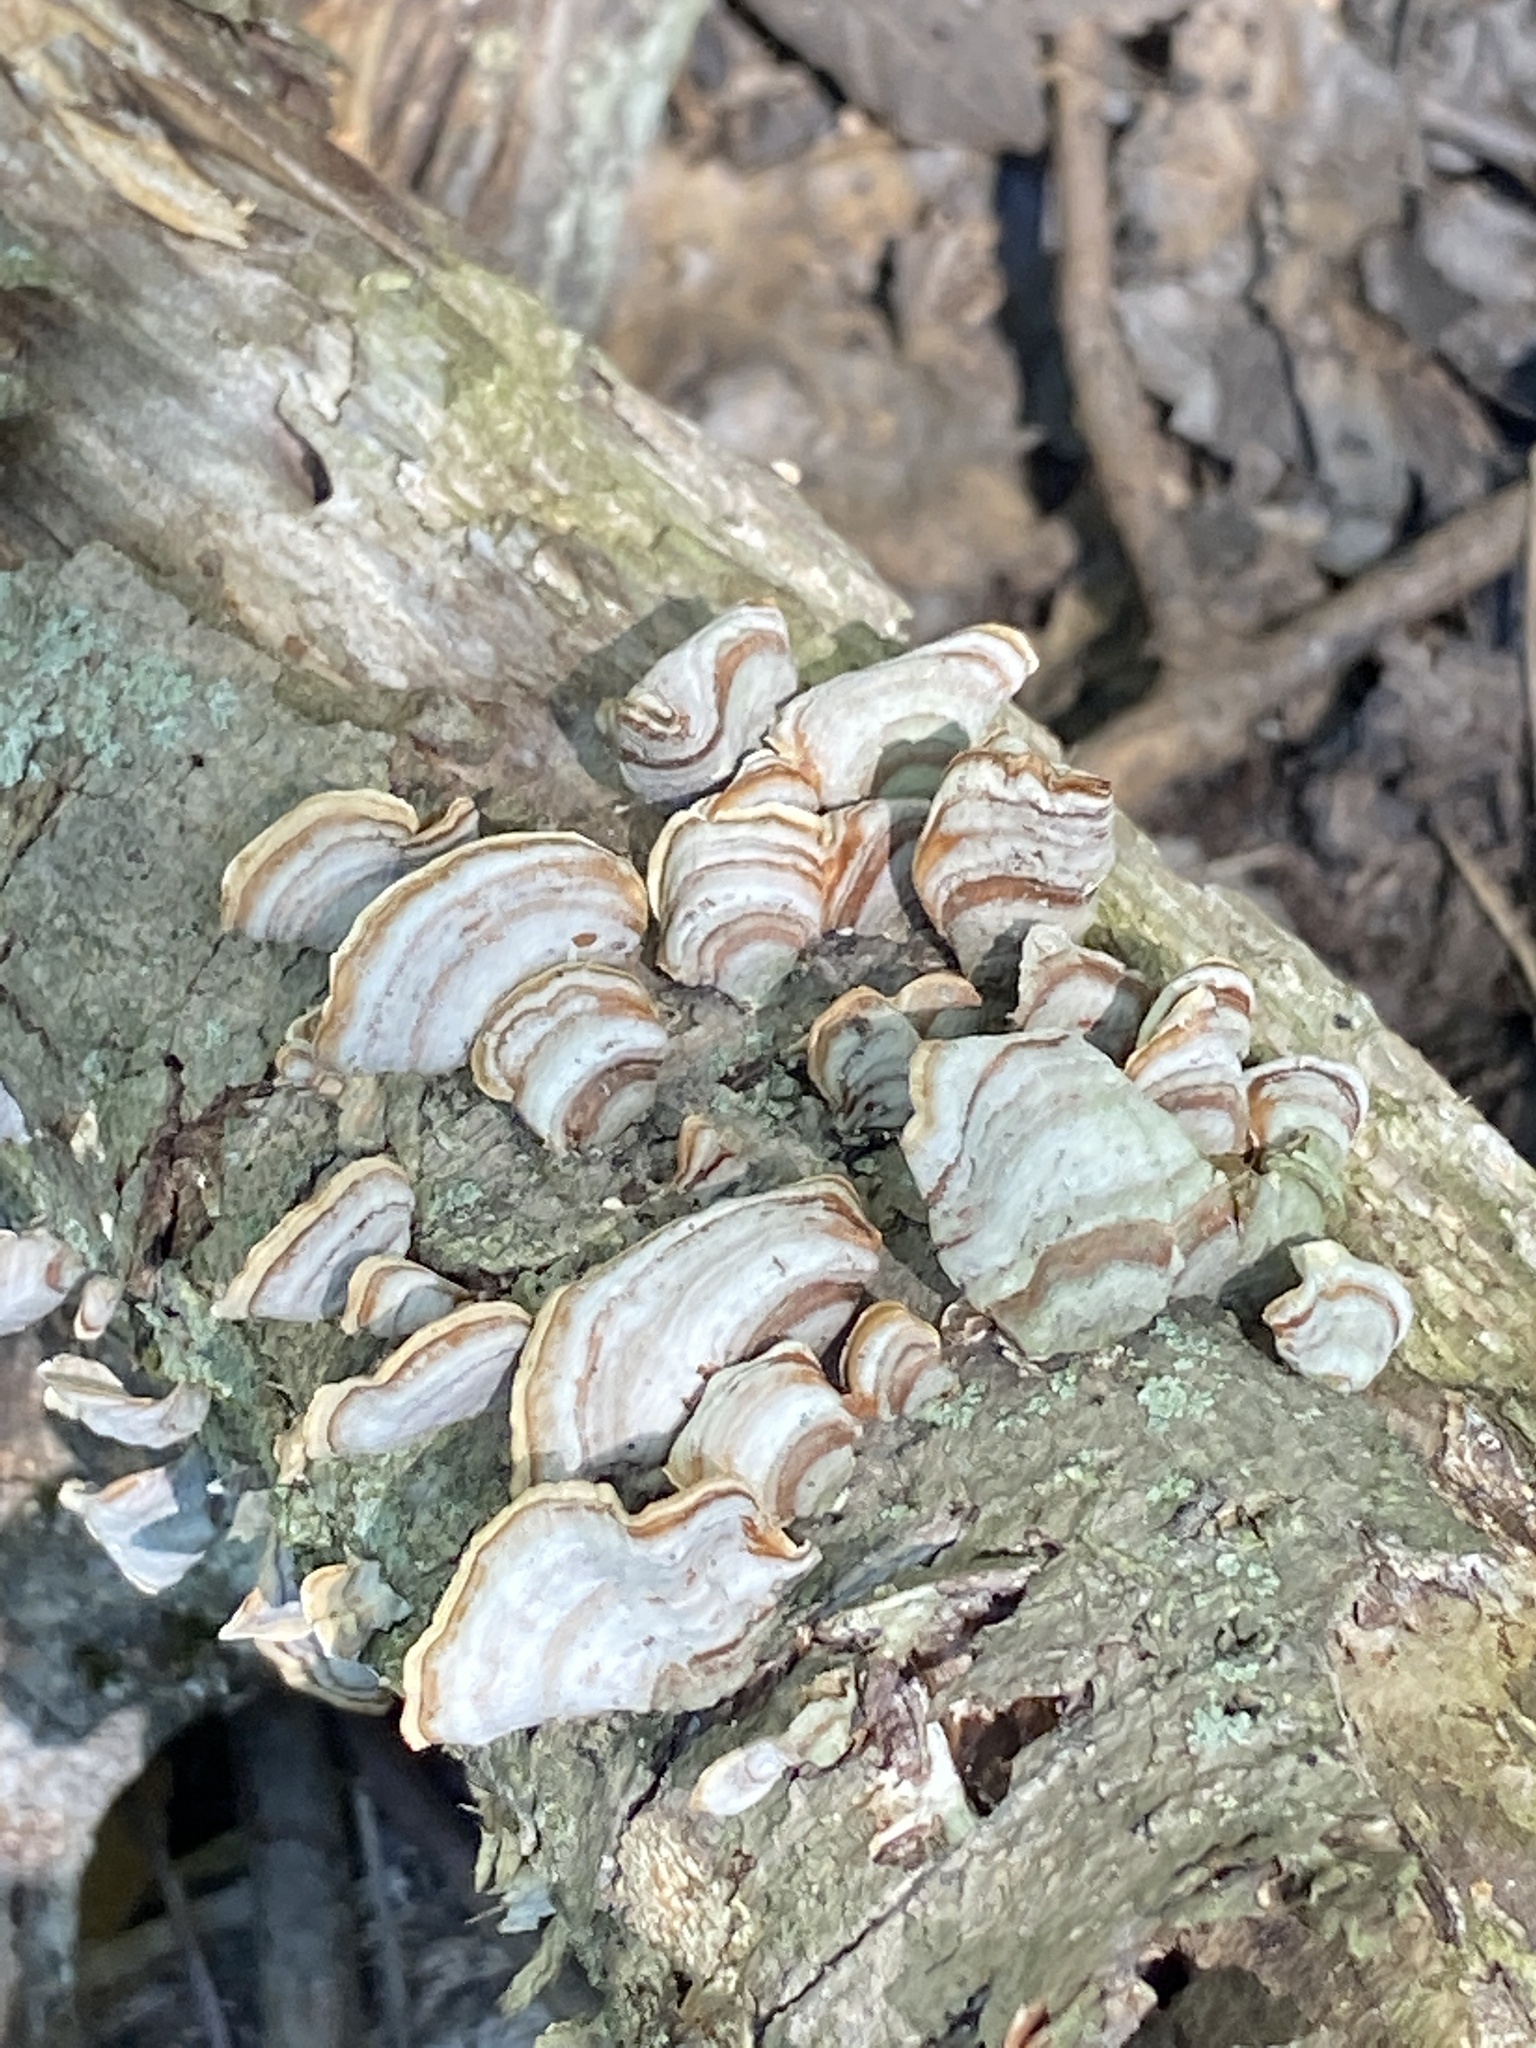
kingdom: Fungi
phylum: Basidiomycota
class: Agaricomycetes
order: Russulales
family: Stereaceae
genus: Stereum
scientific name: Stereum lobatum
